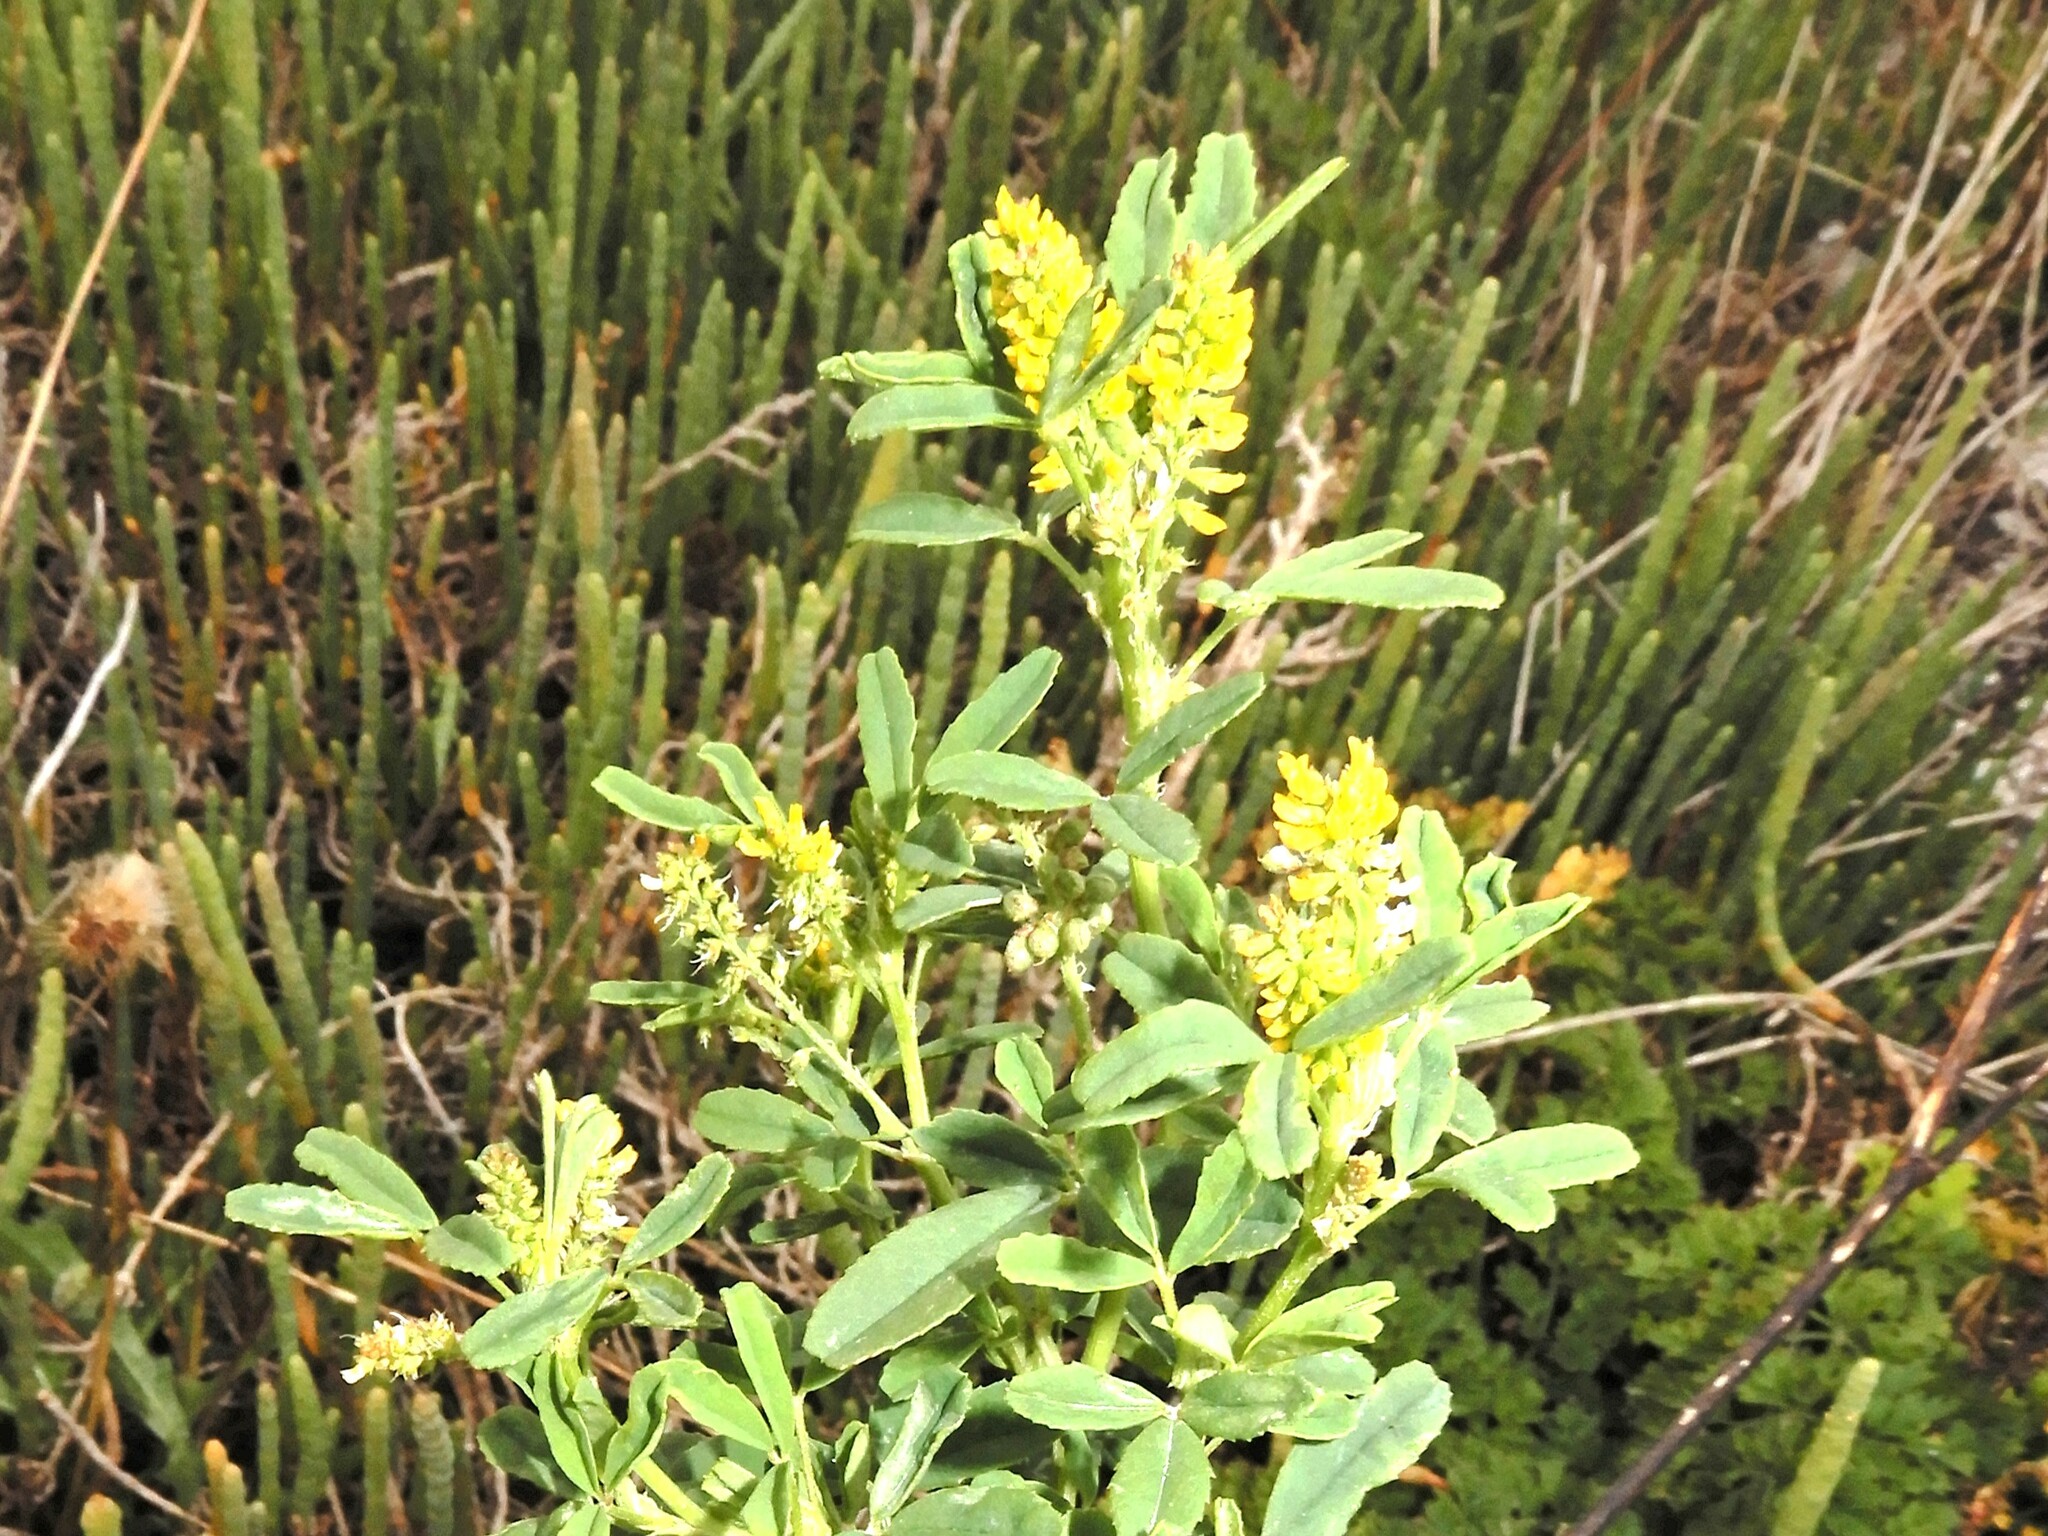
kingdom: Plantae
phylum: Tracheophyta
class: Magnoliopsida
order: Fabales
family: Fabaceae
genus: Melilotus
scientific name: Melilotus indicus
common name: Small melilot
